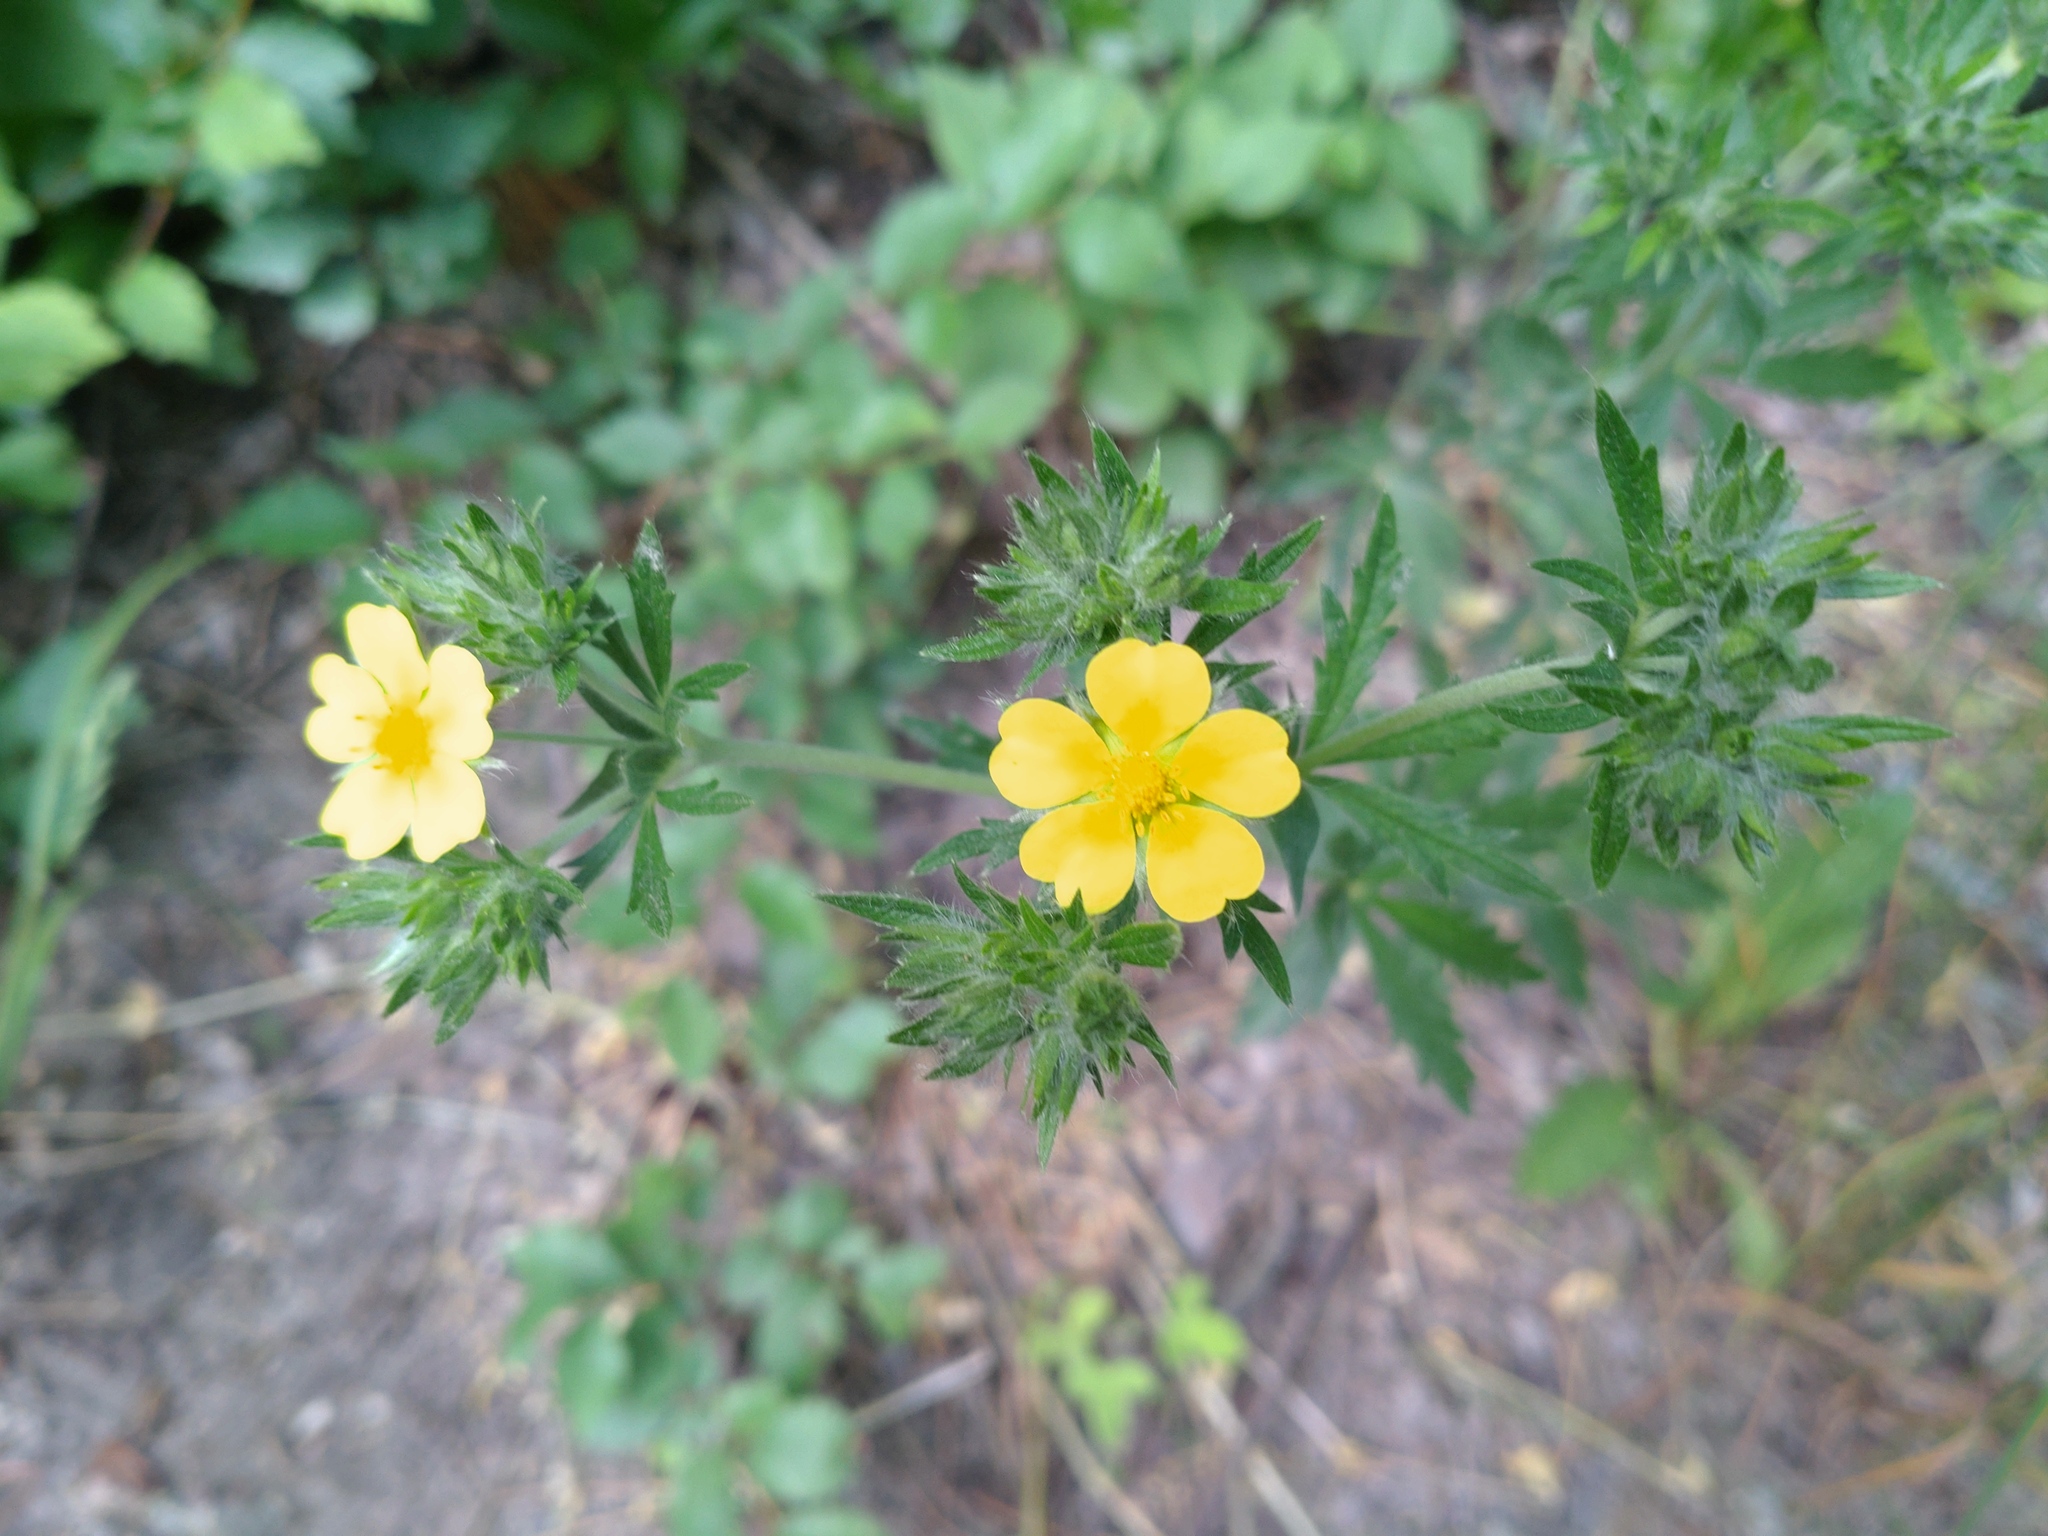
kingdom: Plantae
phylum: Tracheophyta
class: Magnoliopsida
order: Rosales
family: Rosaceae
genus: Potentilla
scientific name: Potentilla recta
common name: Sulphur cinquefoil
